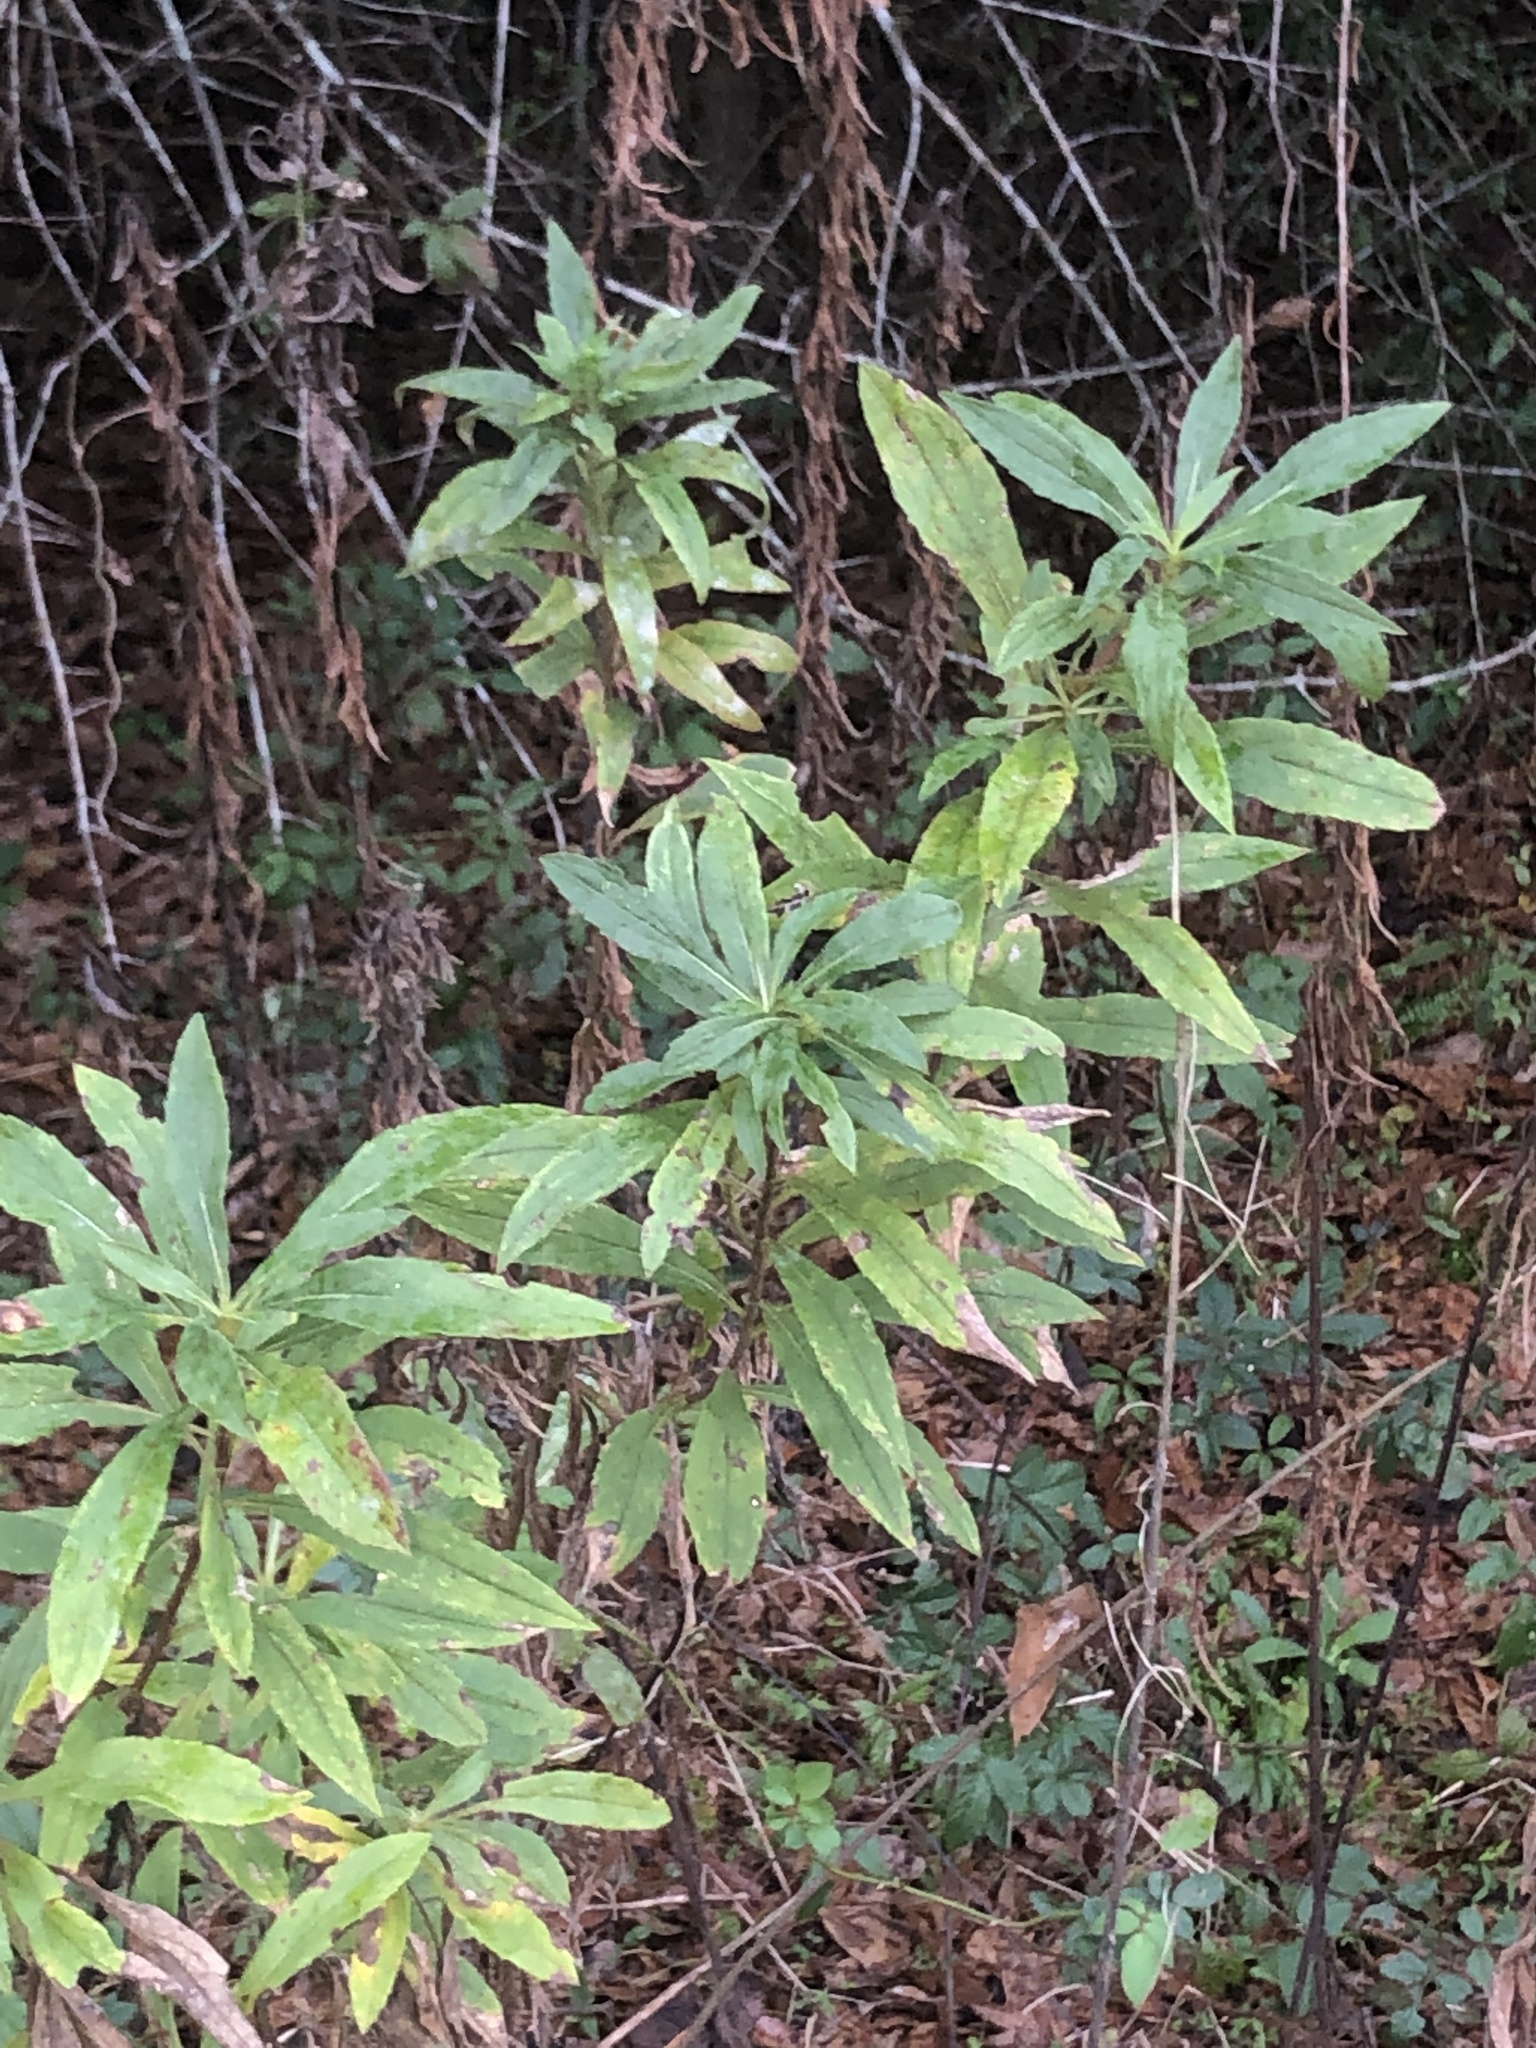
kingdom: Plantae
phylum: Tracheophyta
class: Magnoliopsida
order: Asterales
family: Asteraceae
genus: Solidago
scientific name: Solidago altissima
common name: Late goldenrod
